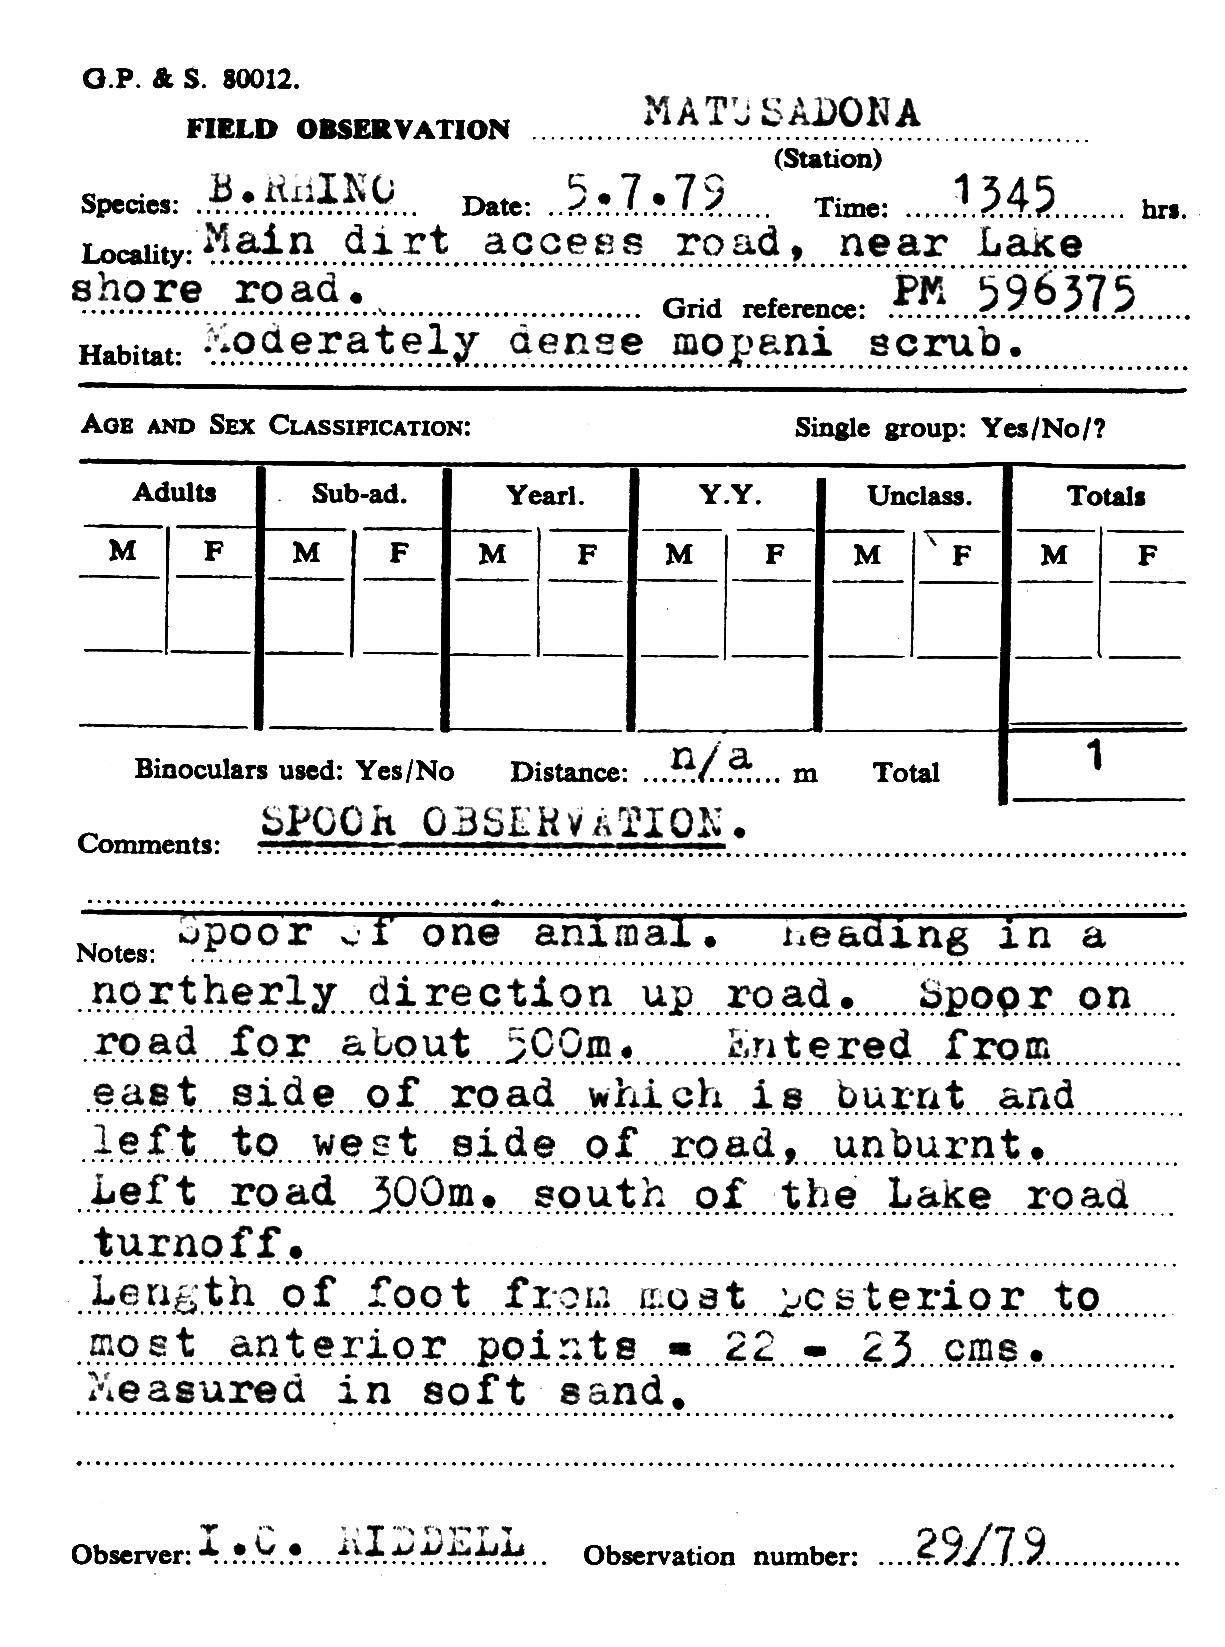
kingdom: Animalia
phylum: Chordata
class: Mammalia
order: Perissodactyla
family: Rhinocerotidae
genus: Diceros
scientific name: Diceros bicornis
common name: Black rhinoceros
